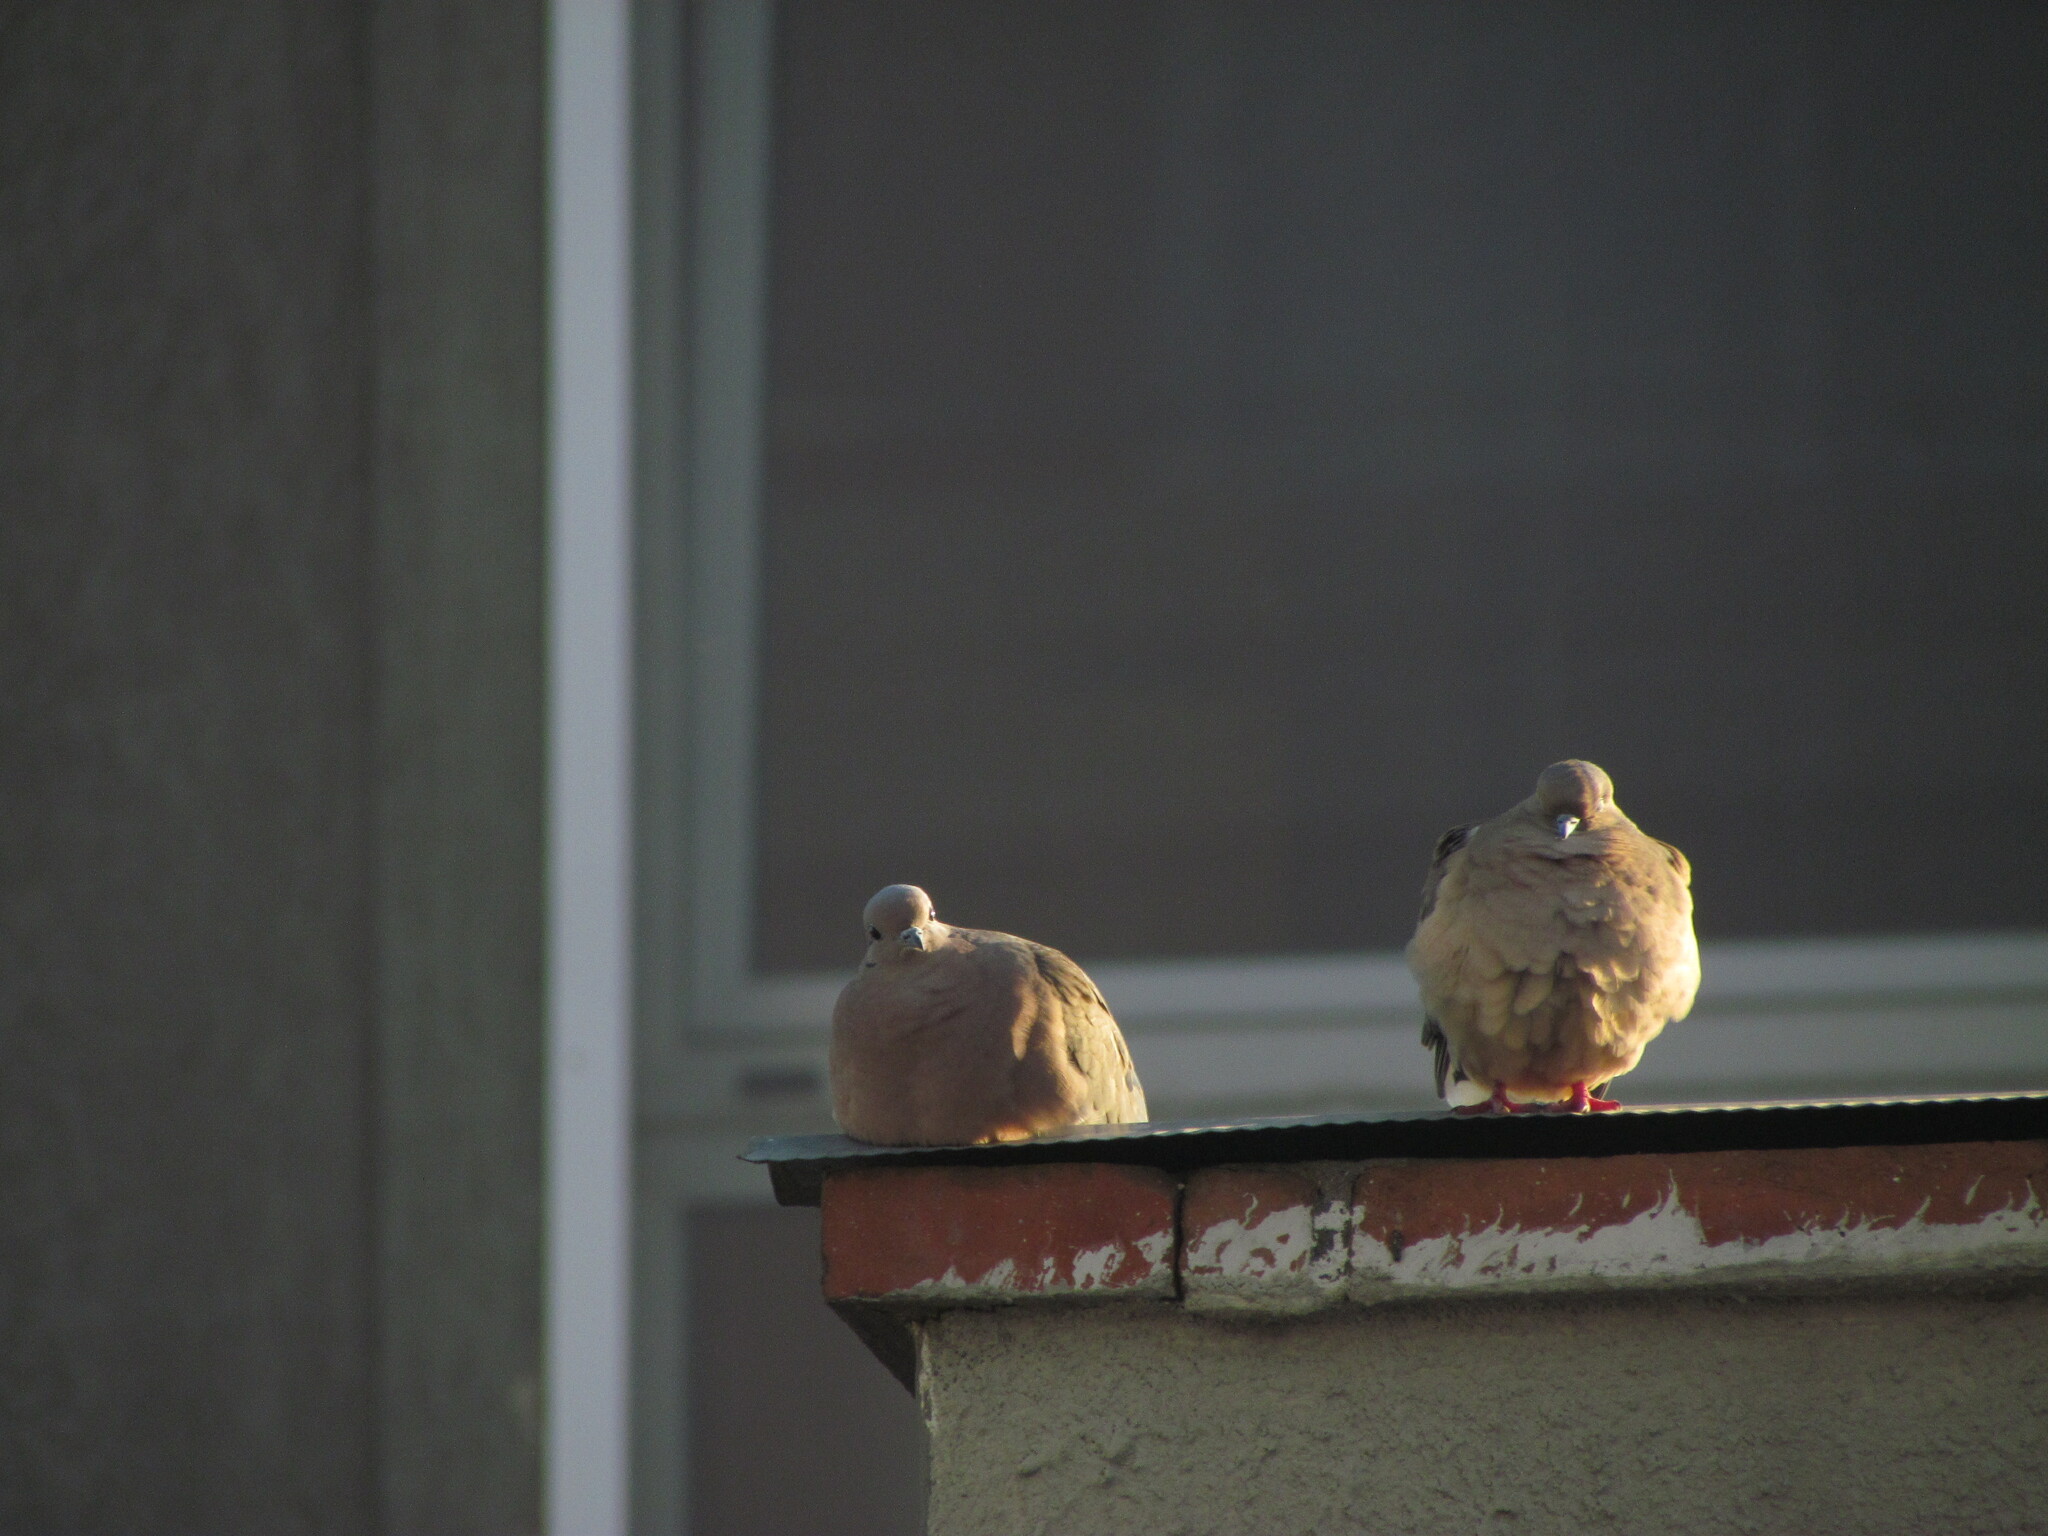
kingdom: Animalia
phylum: Chordata
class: Aves
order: Columbiformes
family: Columbidae
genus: Zenaida
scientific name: Zenaida auriculata
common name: Eared dove
